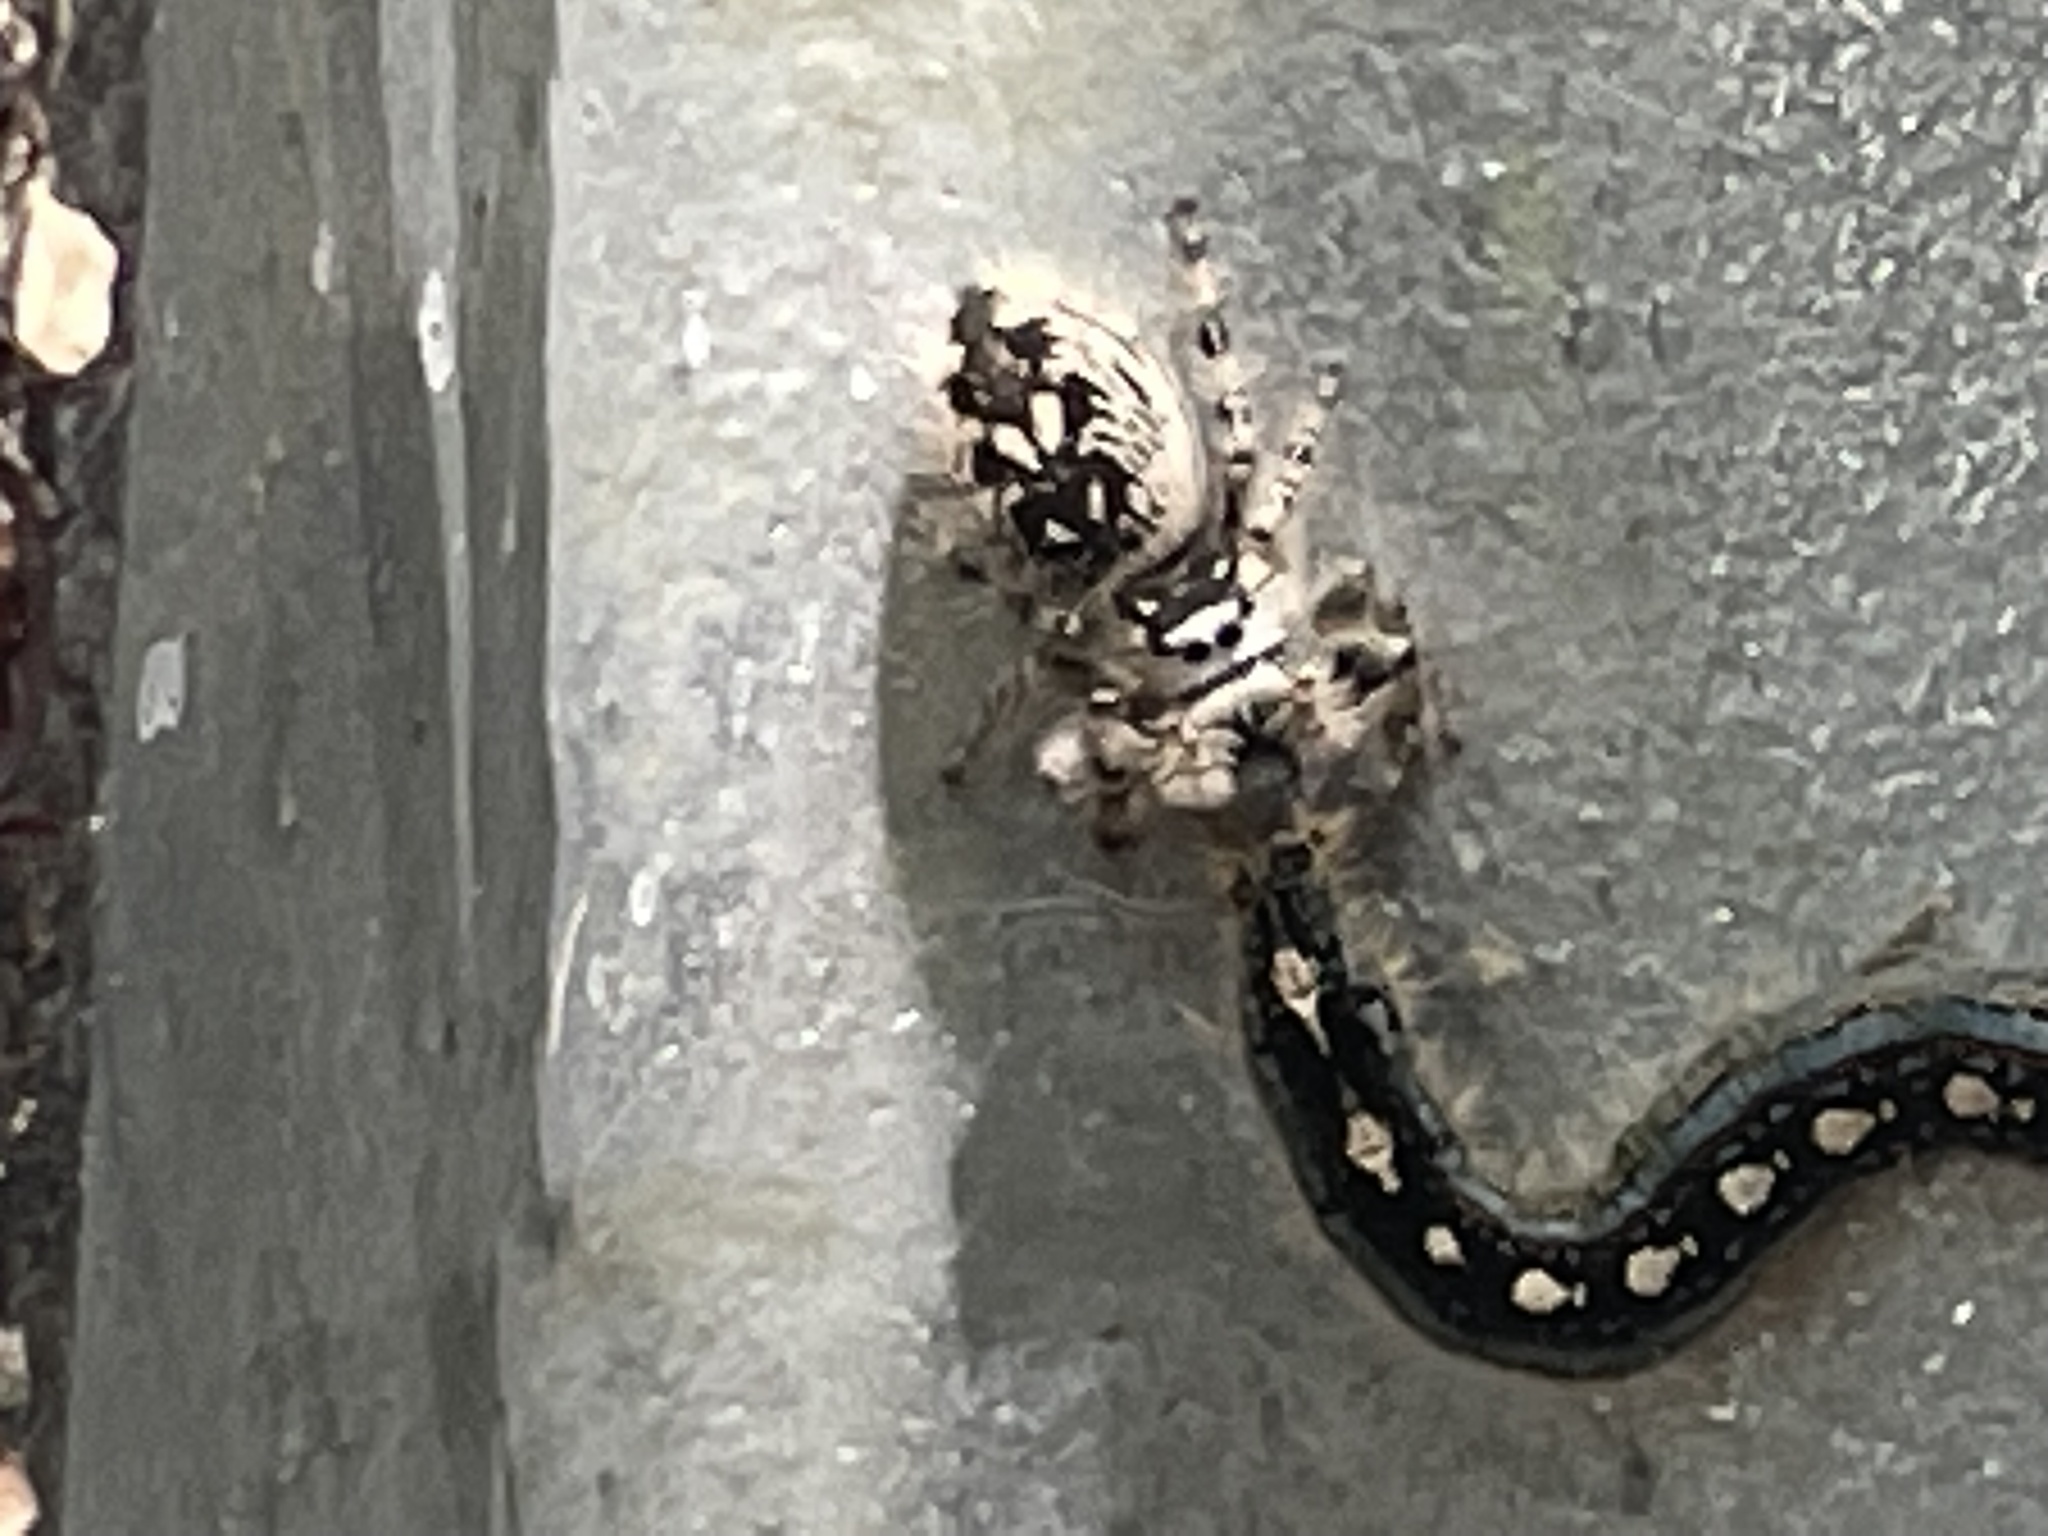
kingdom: Animalia
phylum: Arthropoda
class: Arachnida
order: Araneae
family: Salticidae
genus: Phidippus
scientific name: Phidippus otiosus
